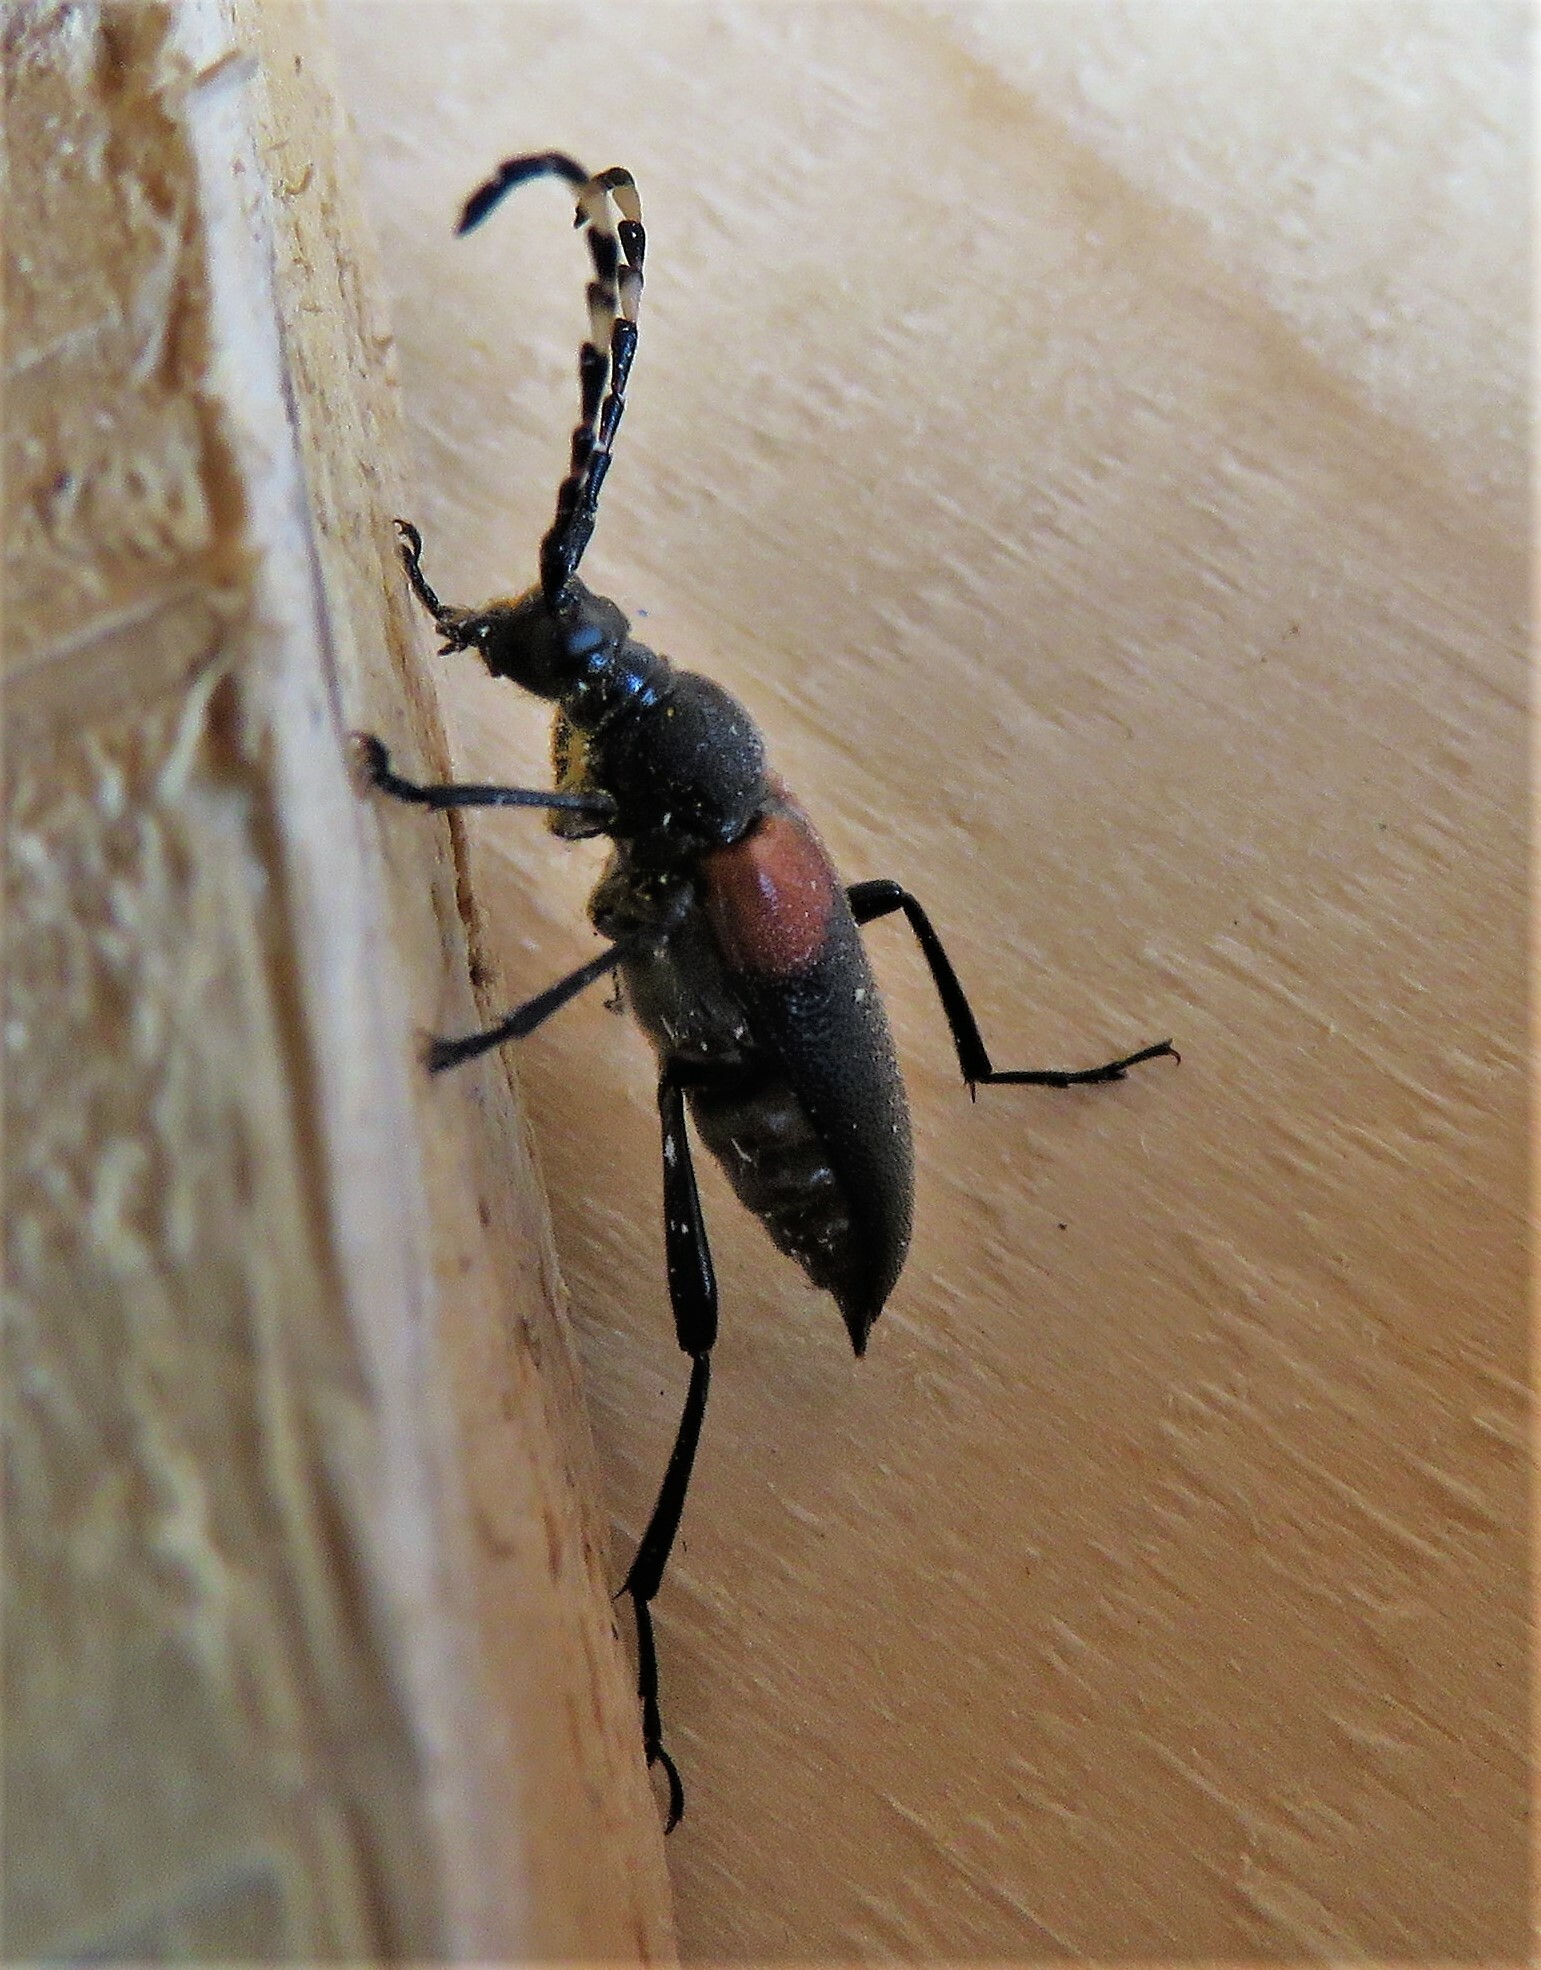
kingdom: Animalia
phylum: Arthropoda
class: Insecta
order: Coleoptera
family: Cerambycidae
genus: Stictoleptura
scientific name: Stictoleptura canadensis
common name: Red-shouldered pine borer
